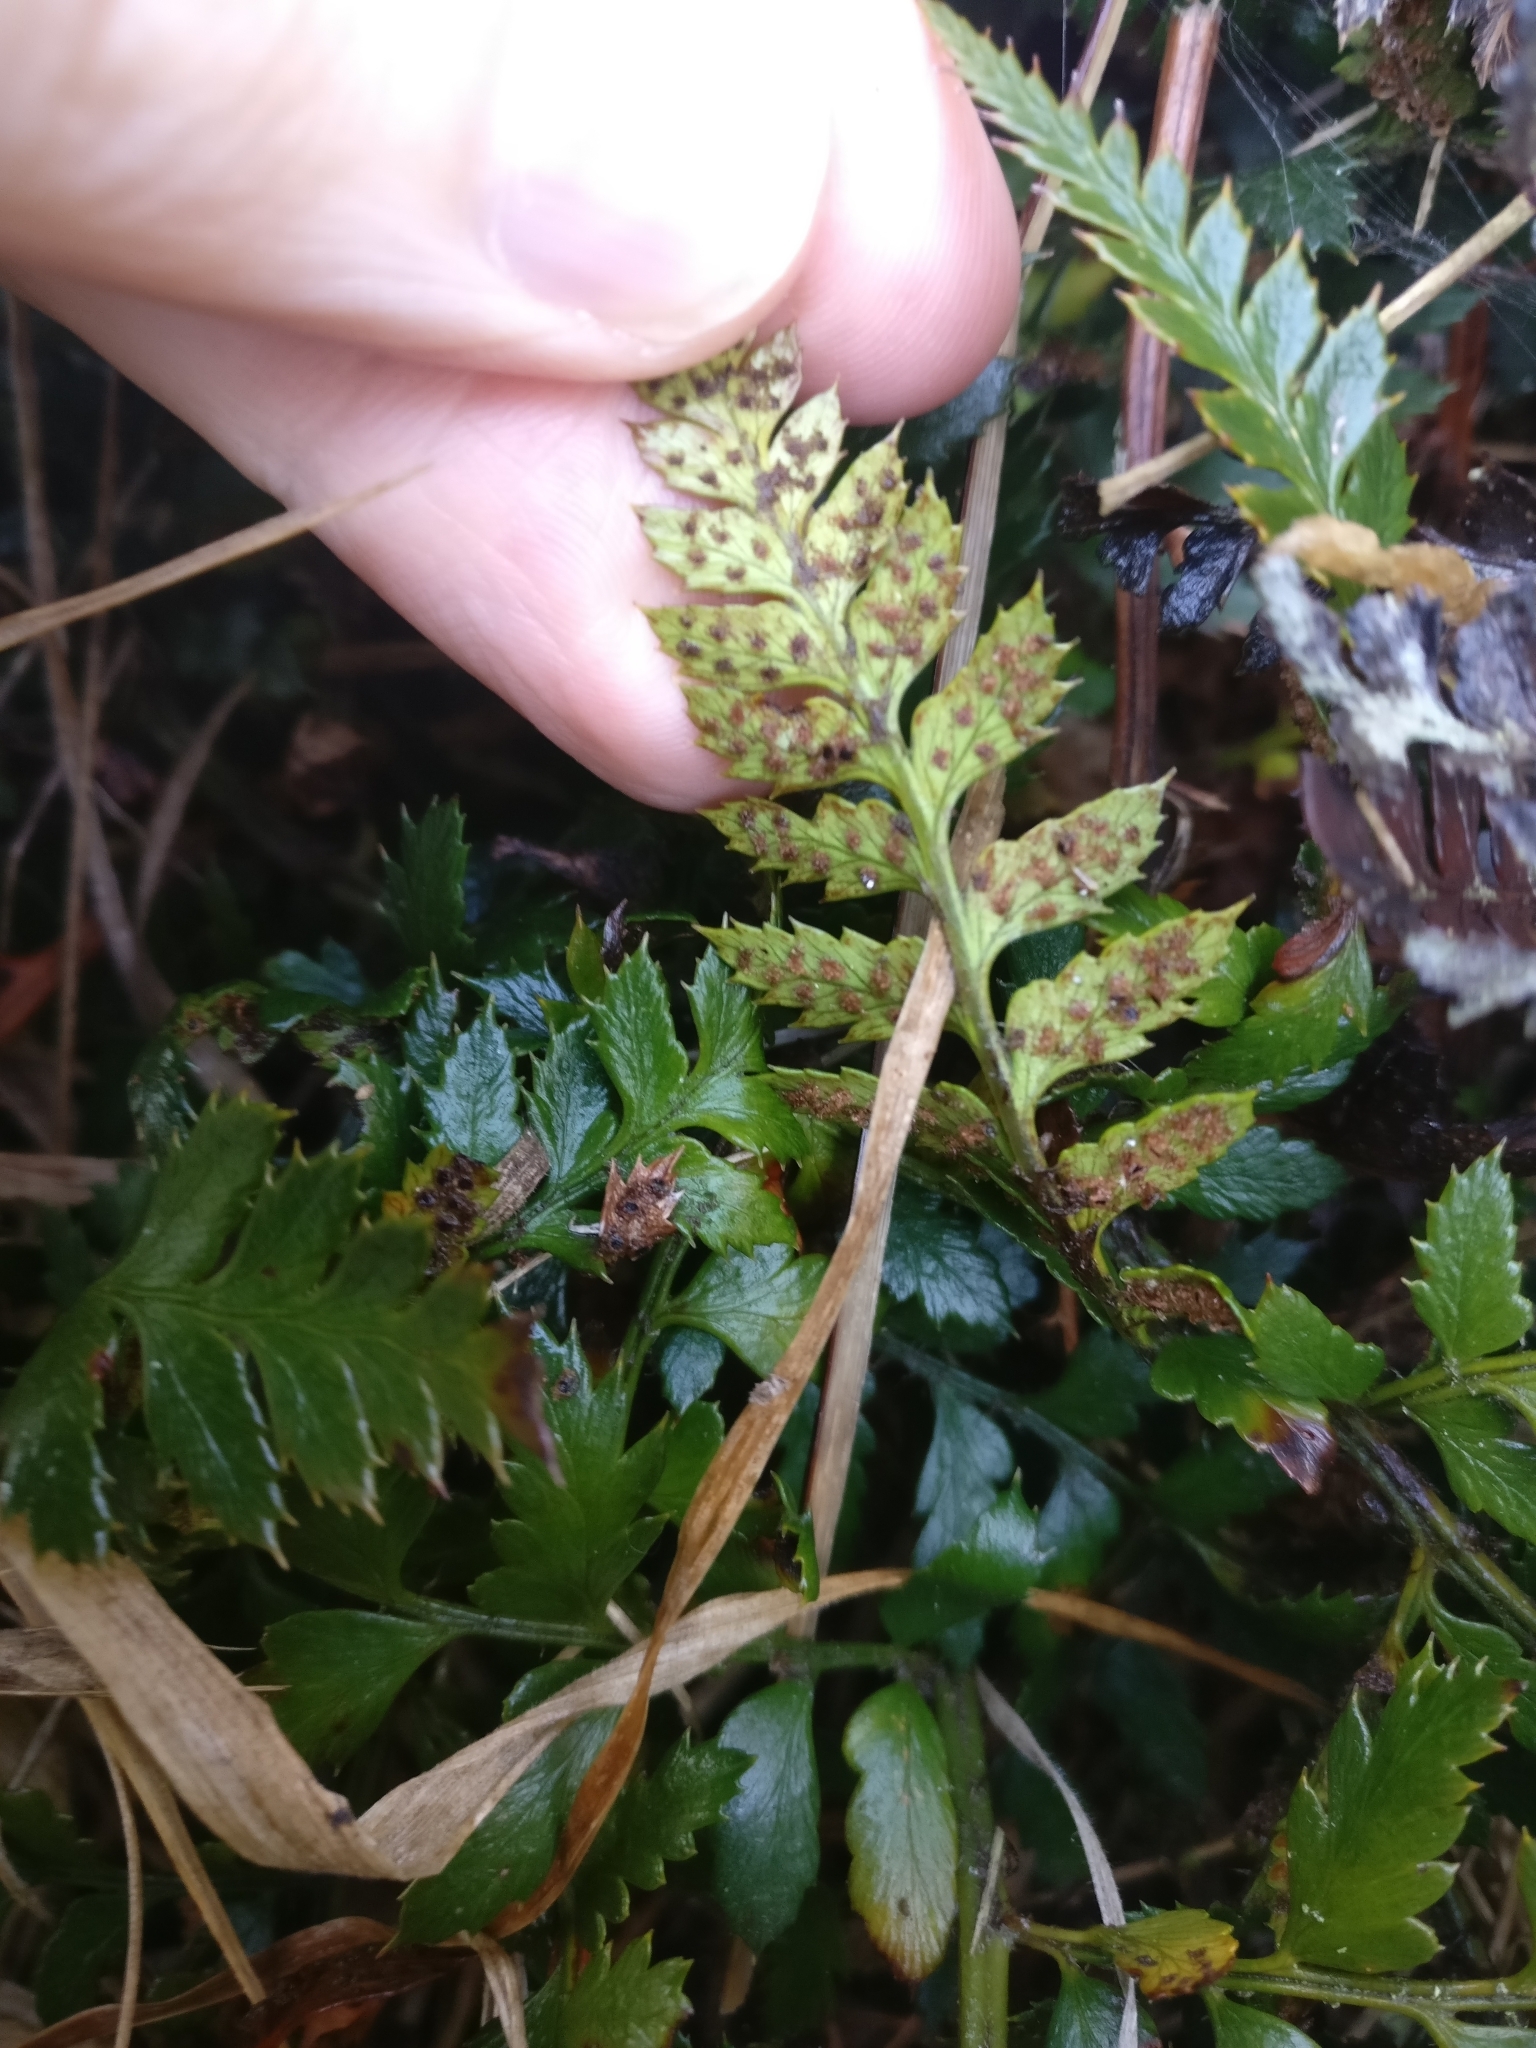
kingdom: Plantae
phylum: Tracheophyta
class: Polypodiopsida
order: Polypodiales
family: Dryopteridaceae
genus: Polystichum
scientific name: Polystichum oculatum
